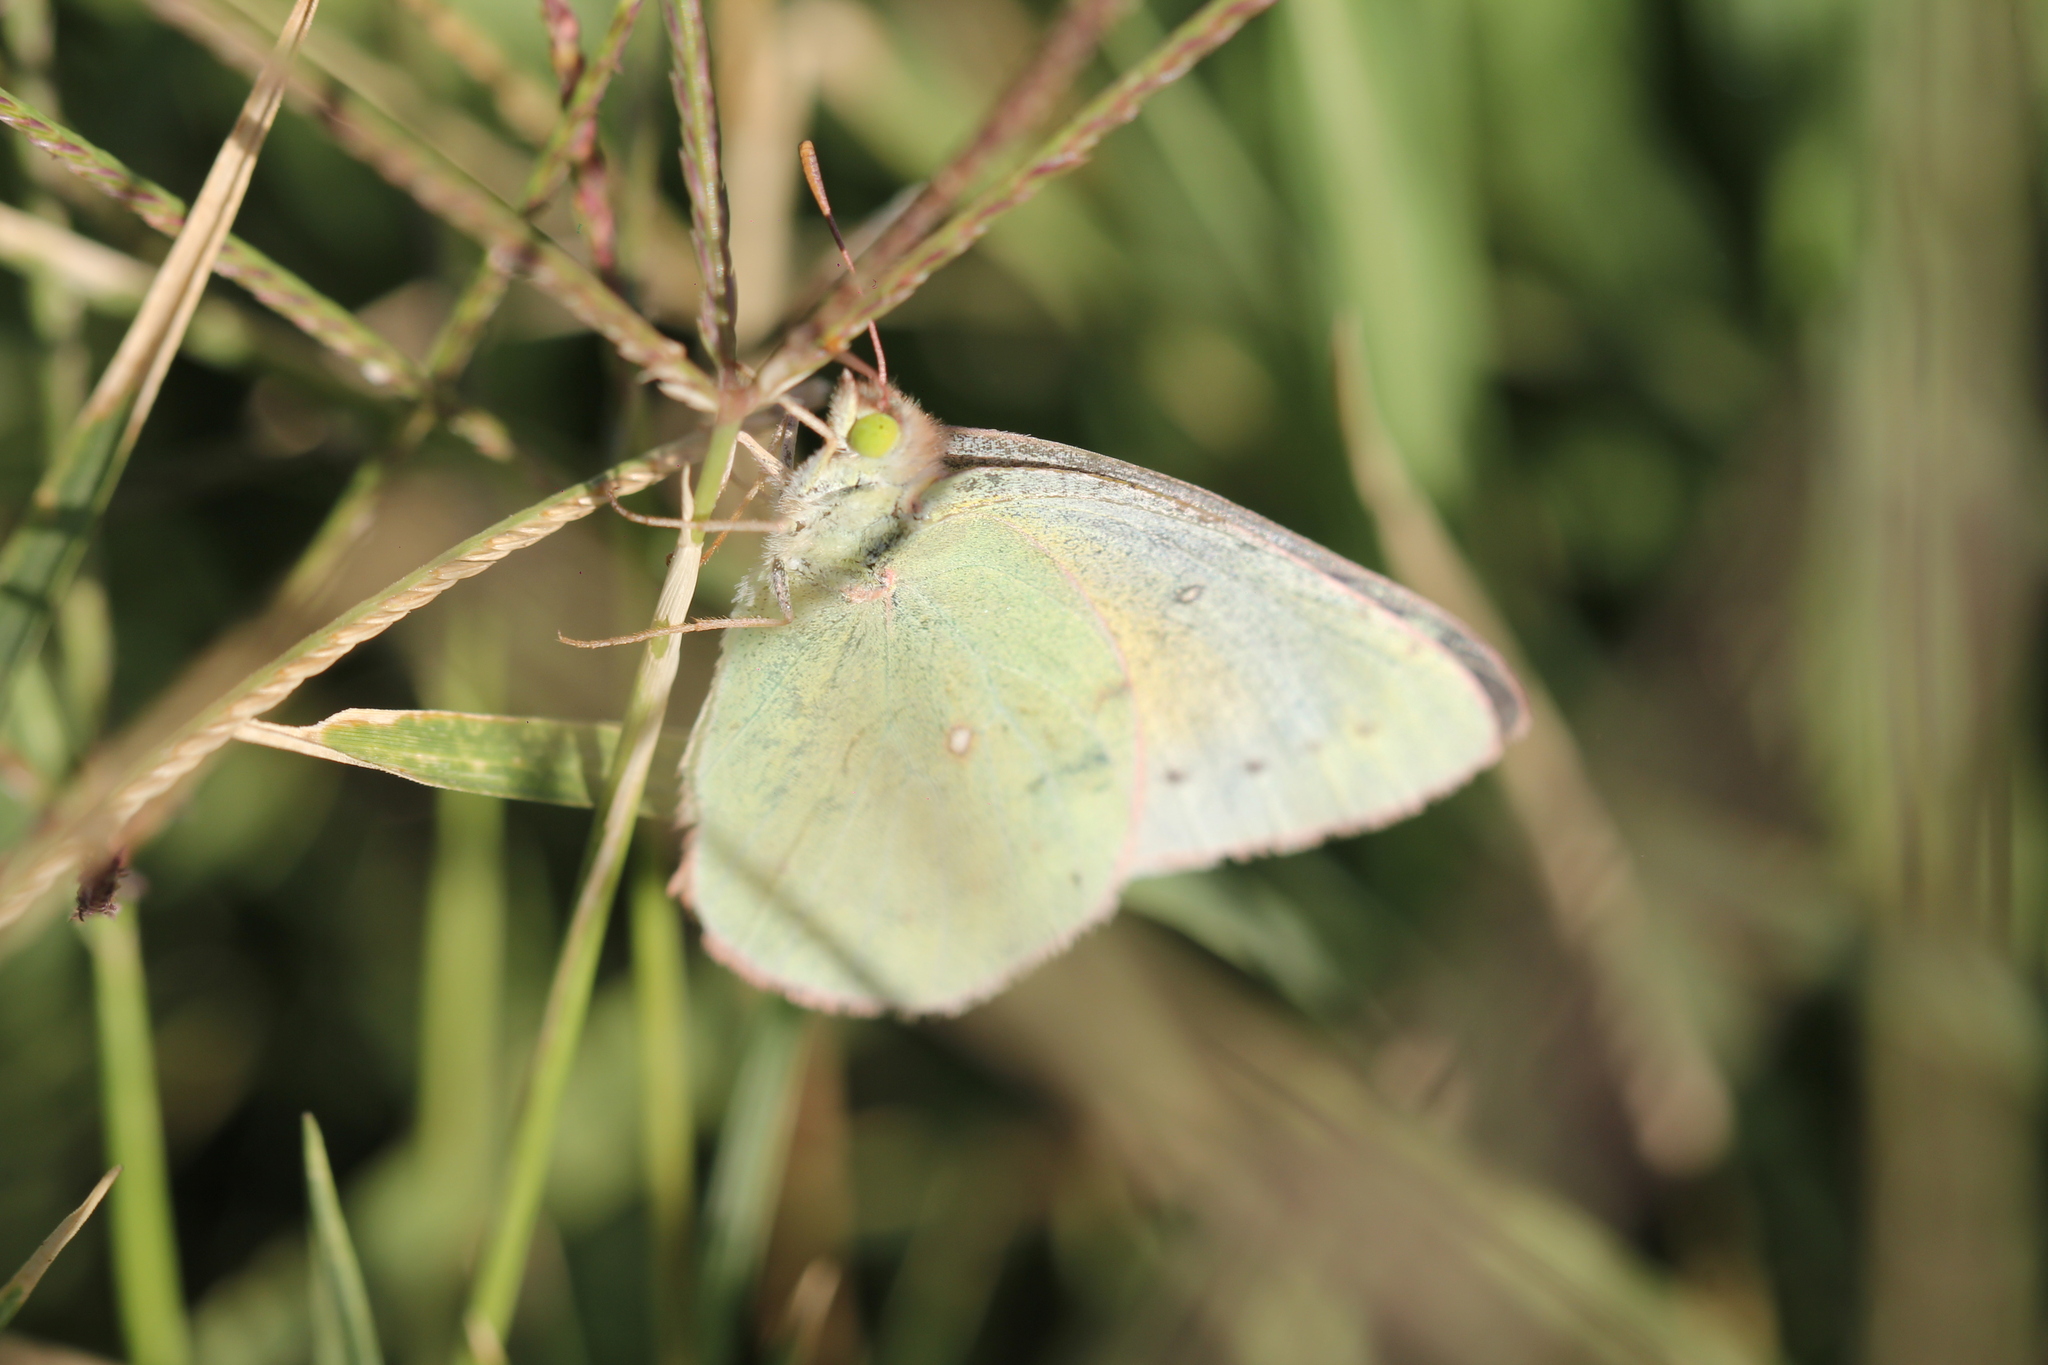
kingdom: Animalia
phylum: Arthropoda
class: Insecta
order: Lepidoptera
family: Pieridae
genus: Colias
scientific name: Colias lesbia
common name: Lesbia clouded yellow
